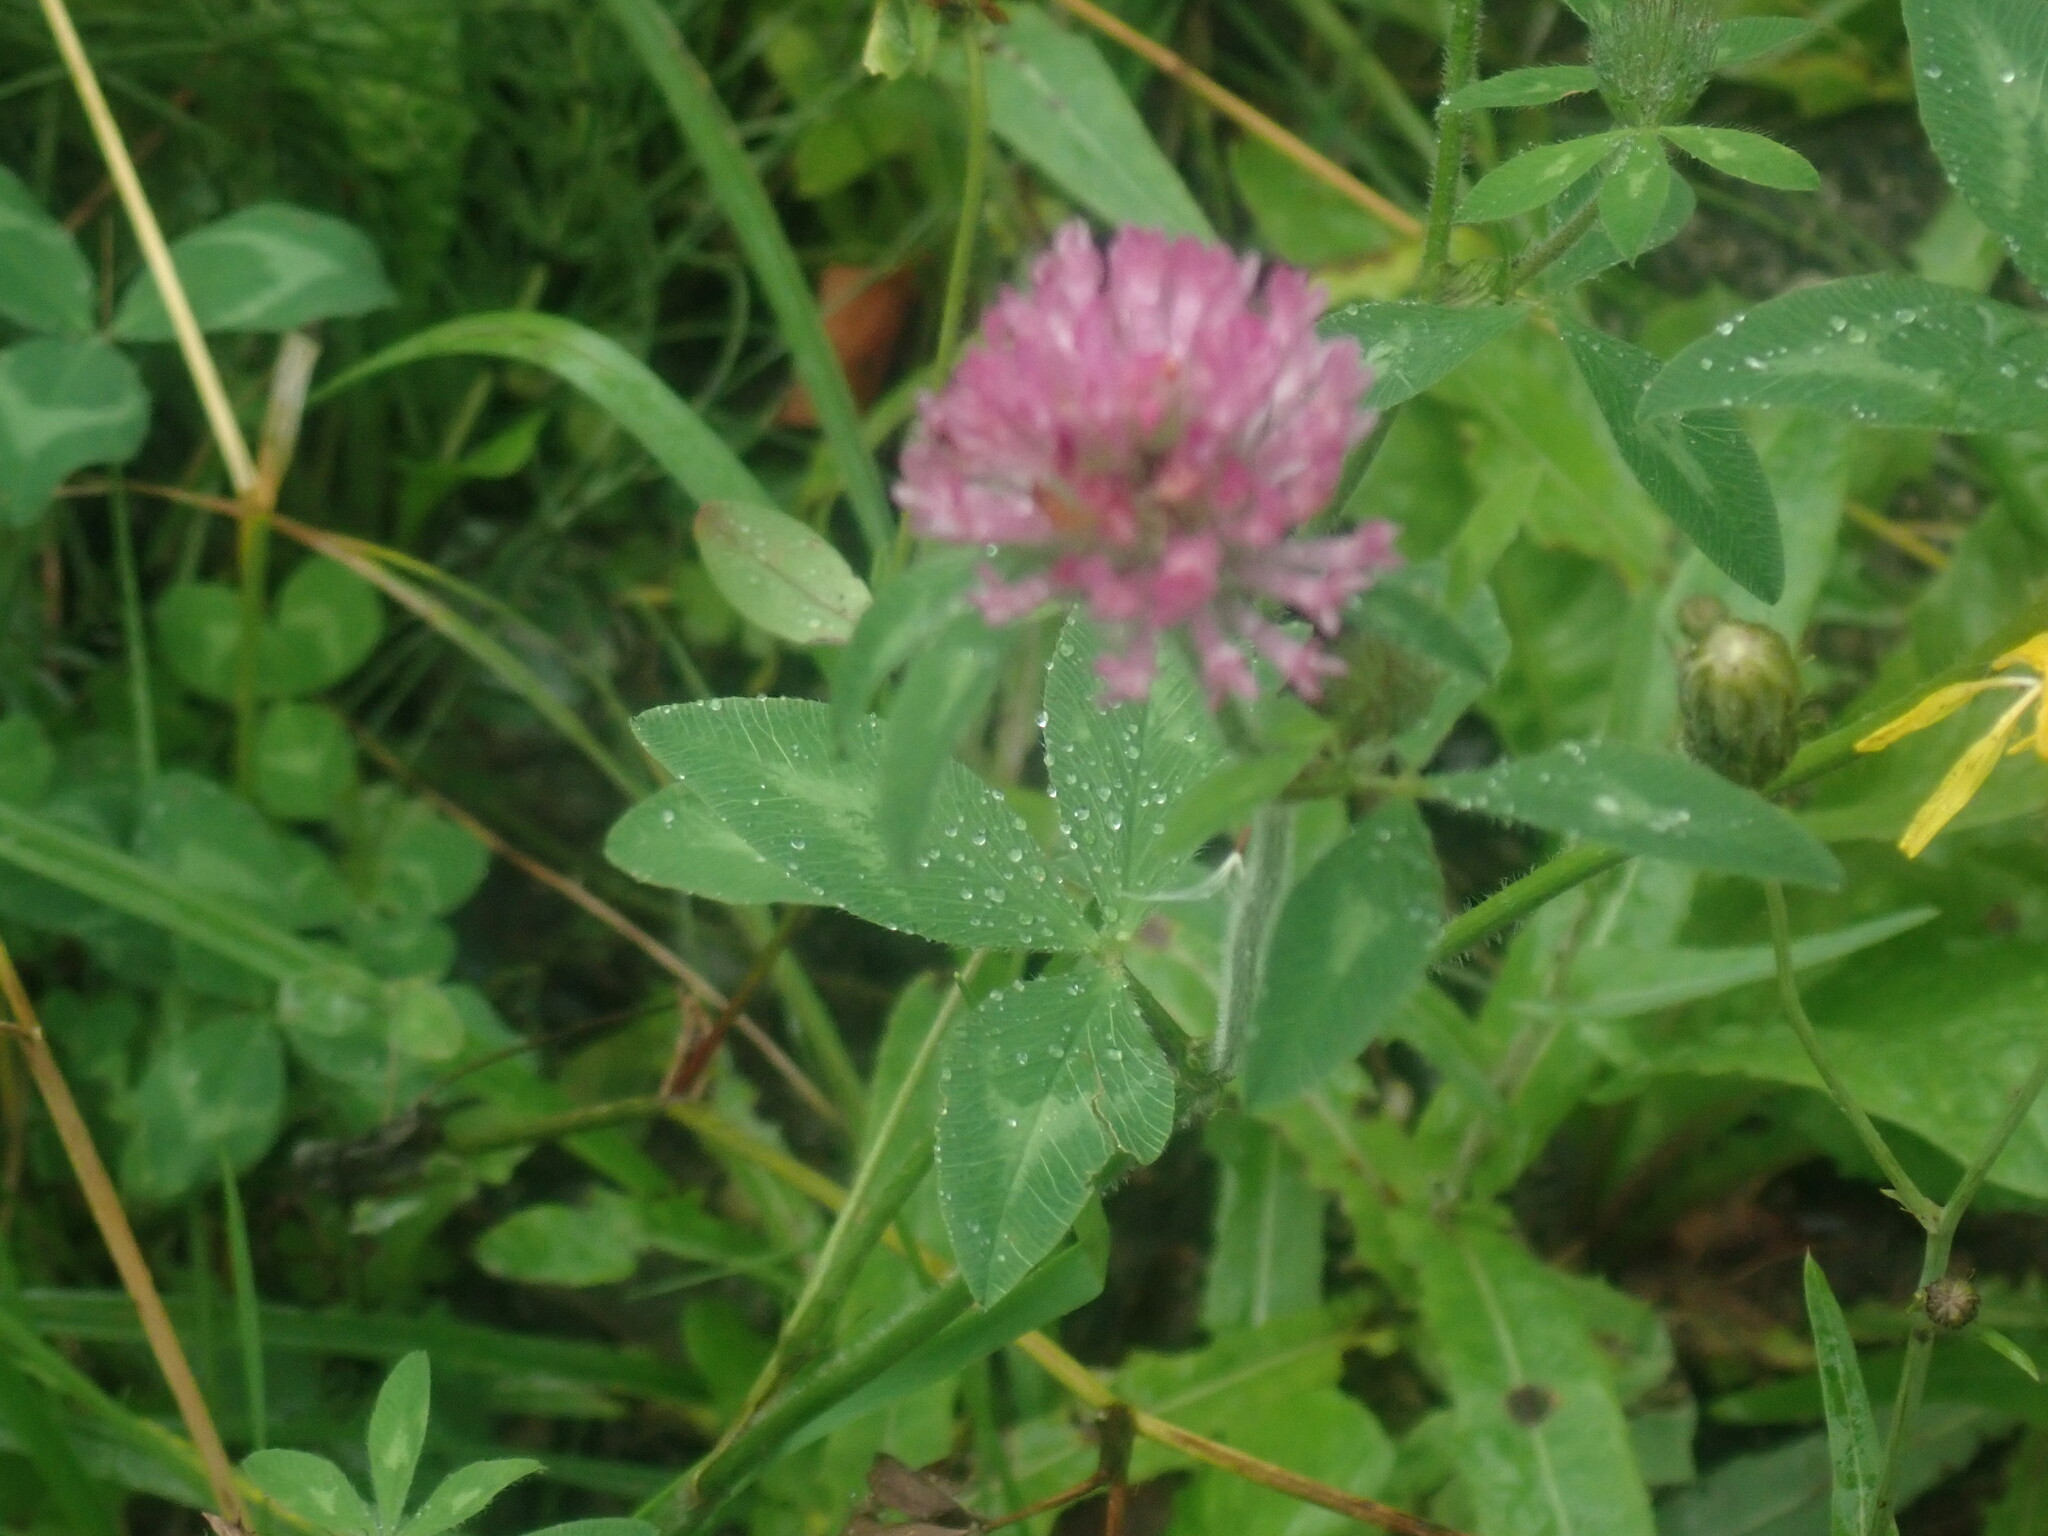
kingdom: Plantae
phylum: Tracheophyta
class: Magnoliopsida
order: Fabales
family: Fabaceae
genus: Trifolium
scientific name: Trifolium pratense
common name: Red clover
